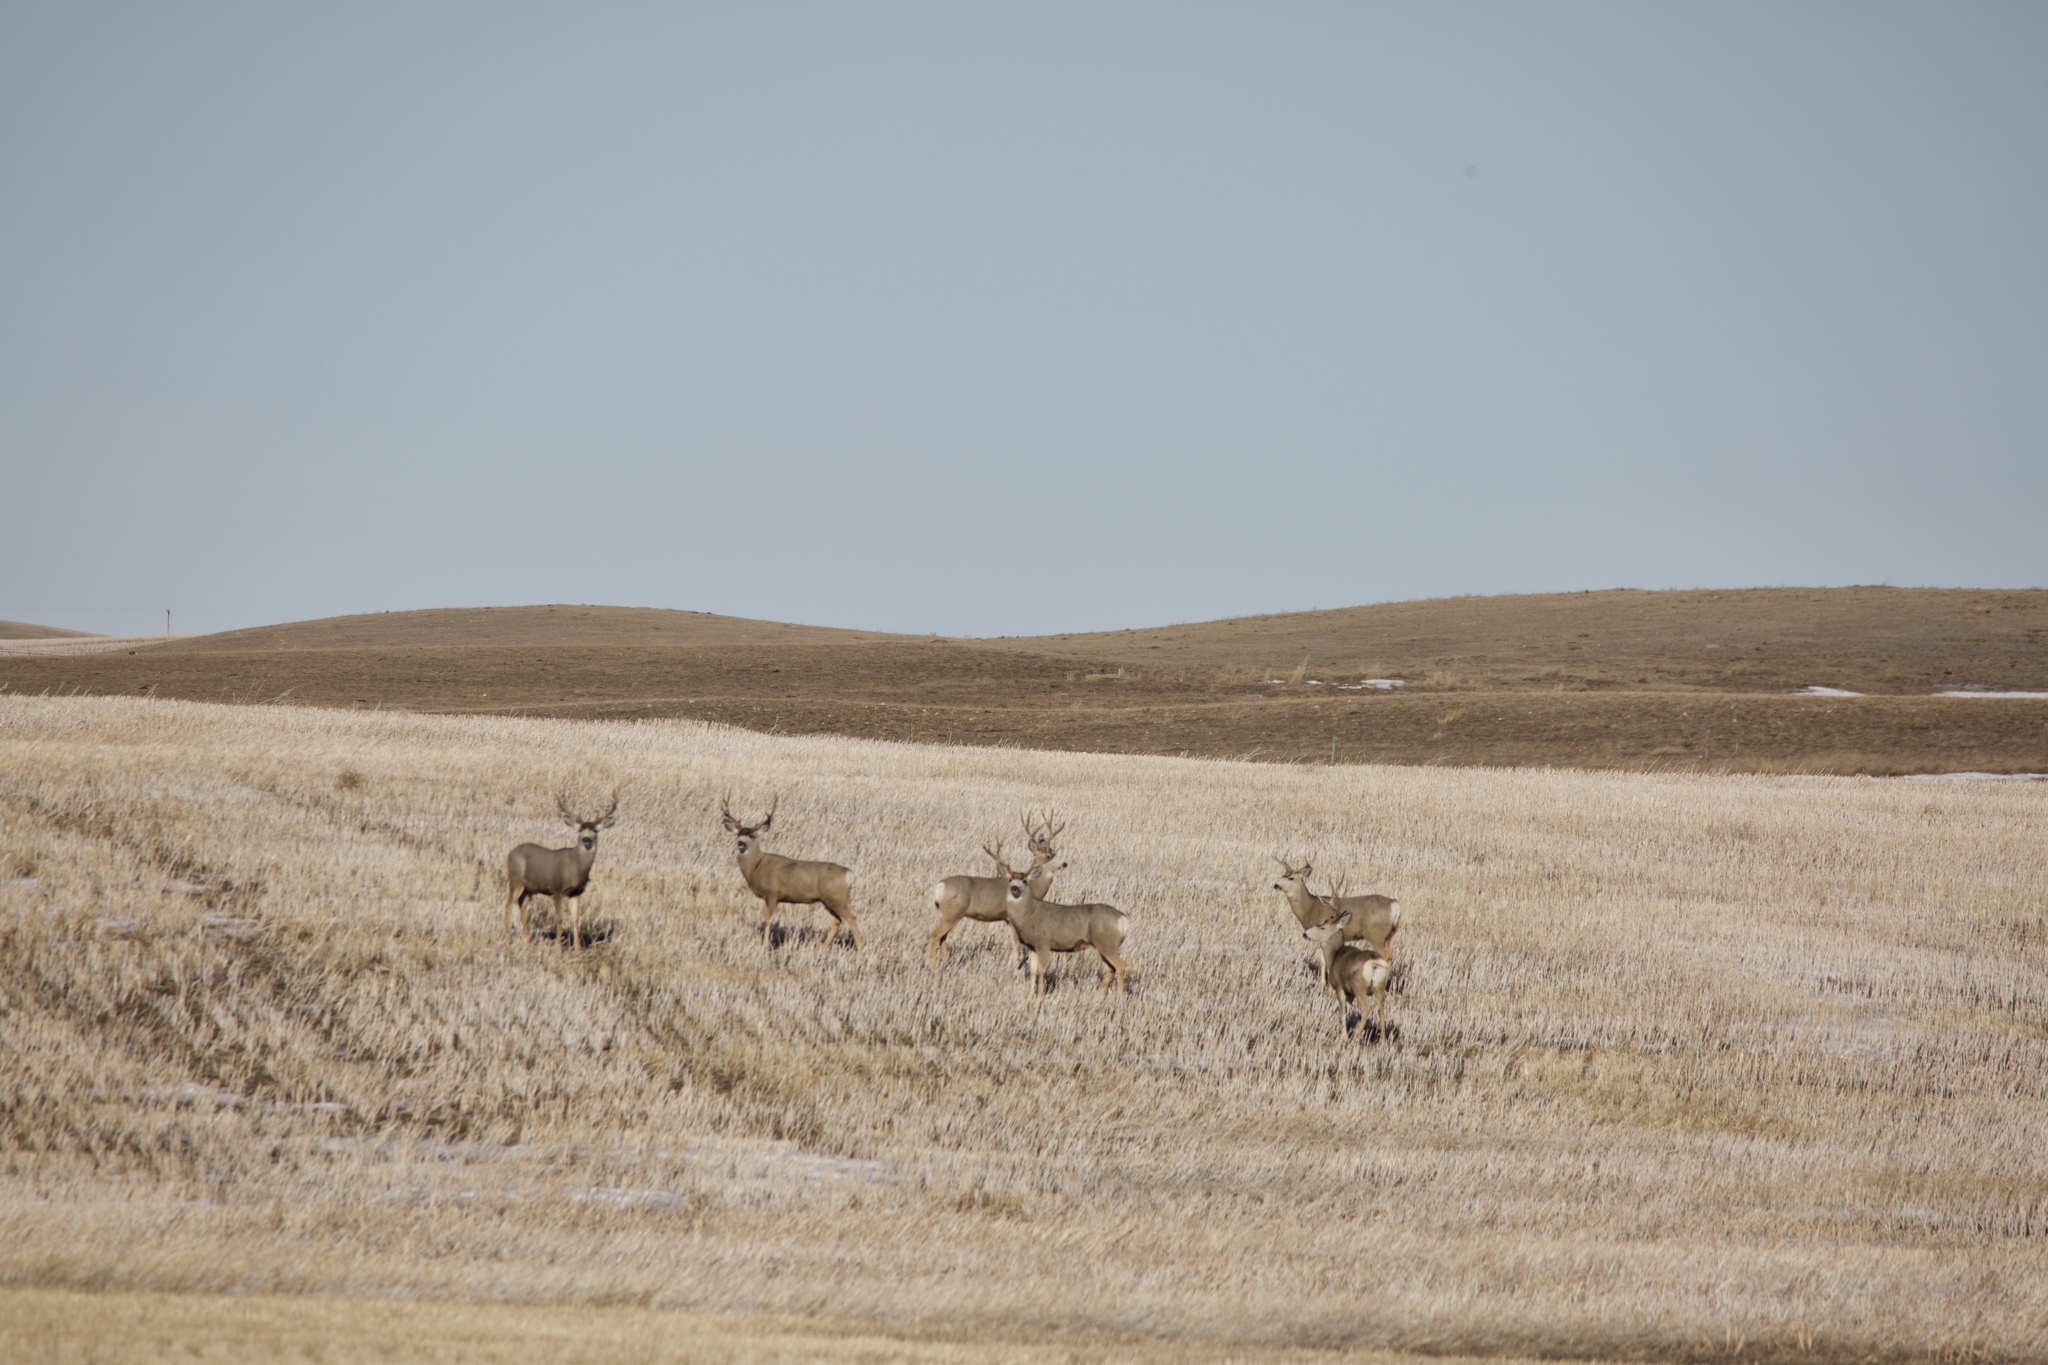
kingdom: Animalia
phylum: Chordata
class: Mammalia
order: Artiodactyla
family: Cervidae
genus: Odocoileus
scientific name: Odocoileus hemionus
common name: Mule deer
